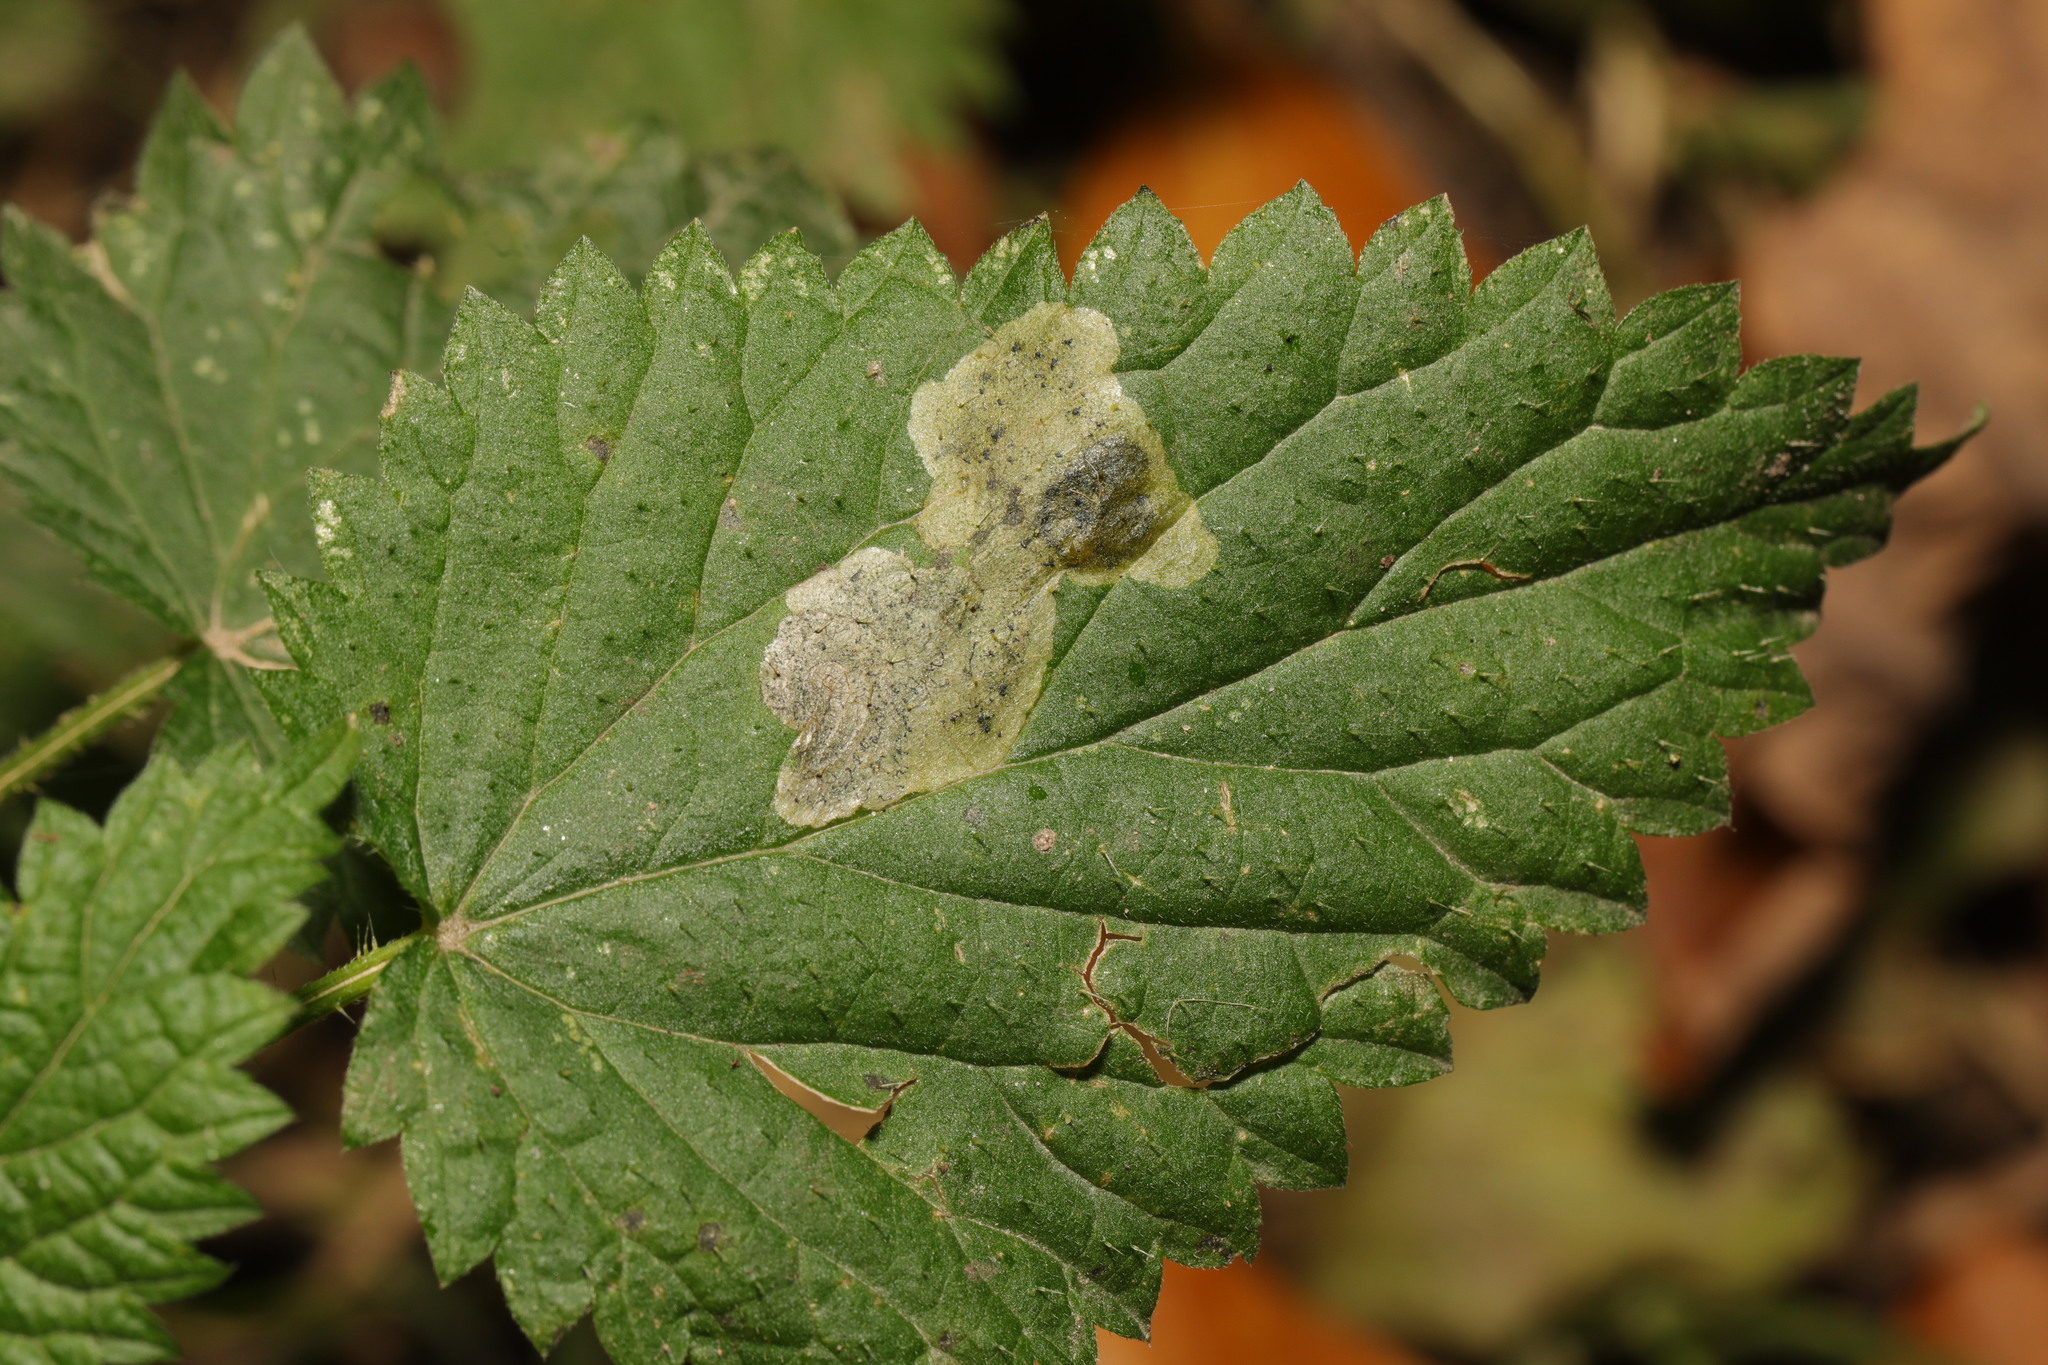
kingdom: Animalia
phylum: Arthropoda
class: Insecta
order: Diptera
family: Agromyzidae
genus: Agromyza
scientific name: Agromyza anthracina
